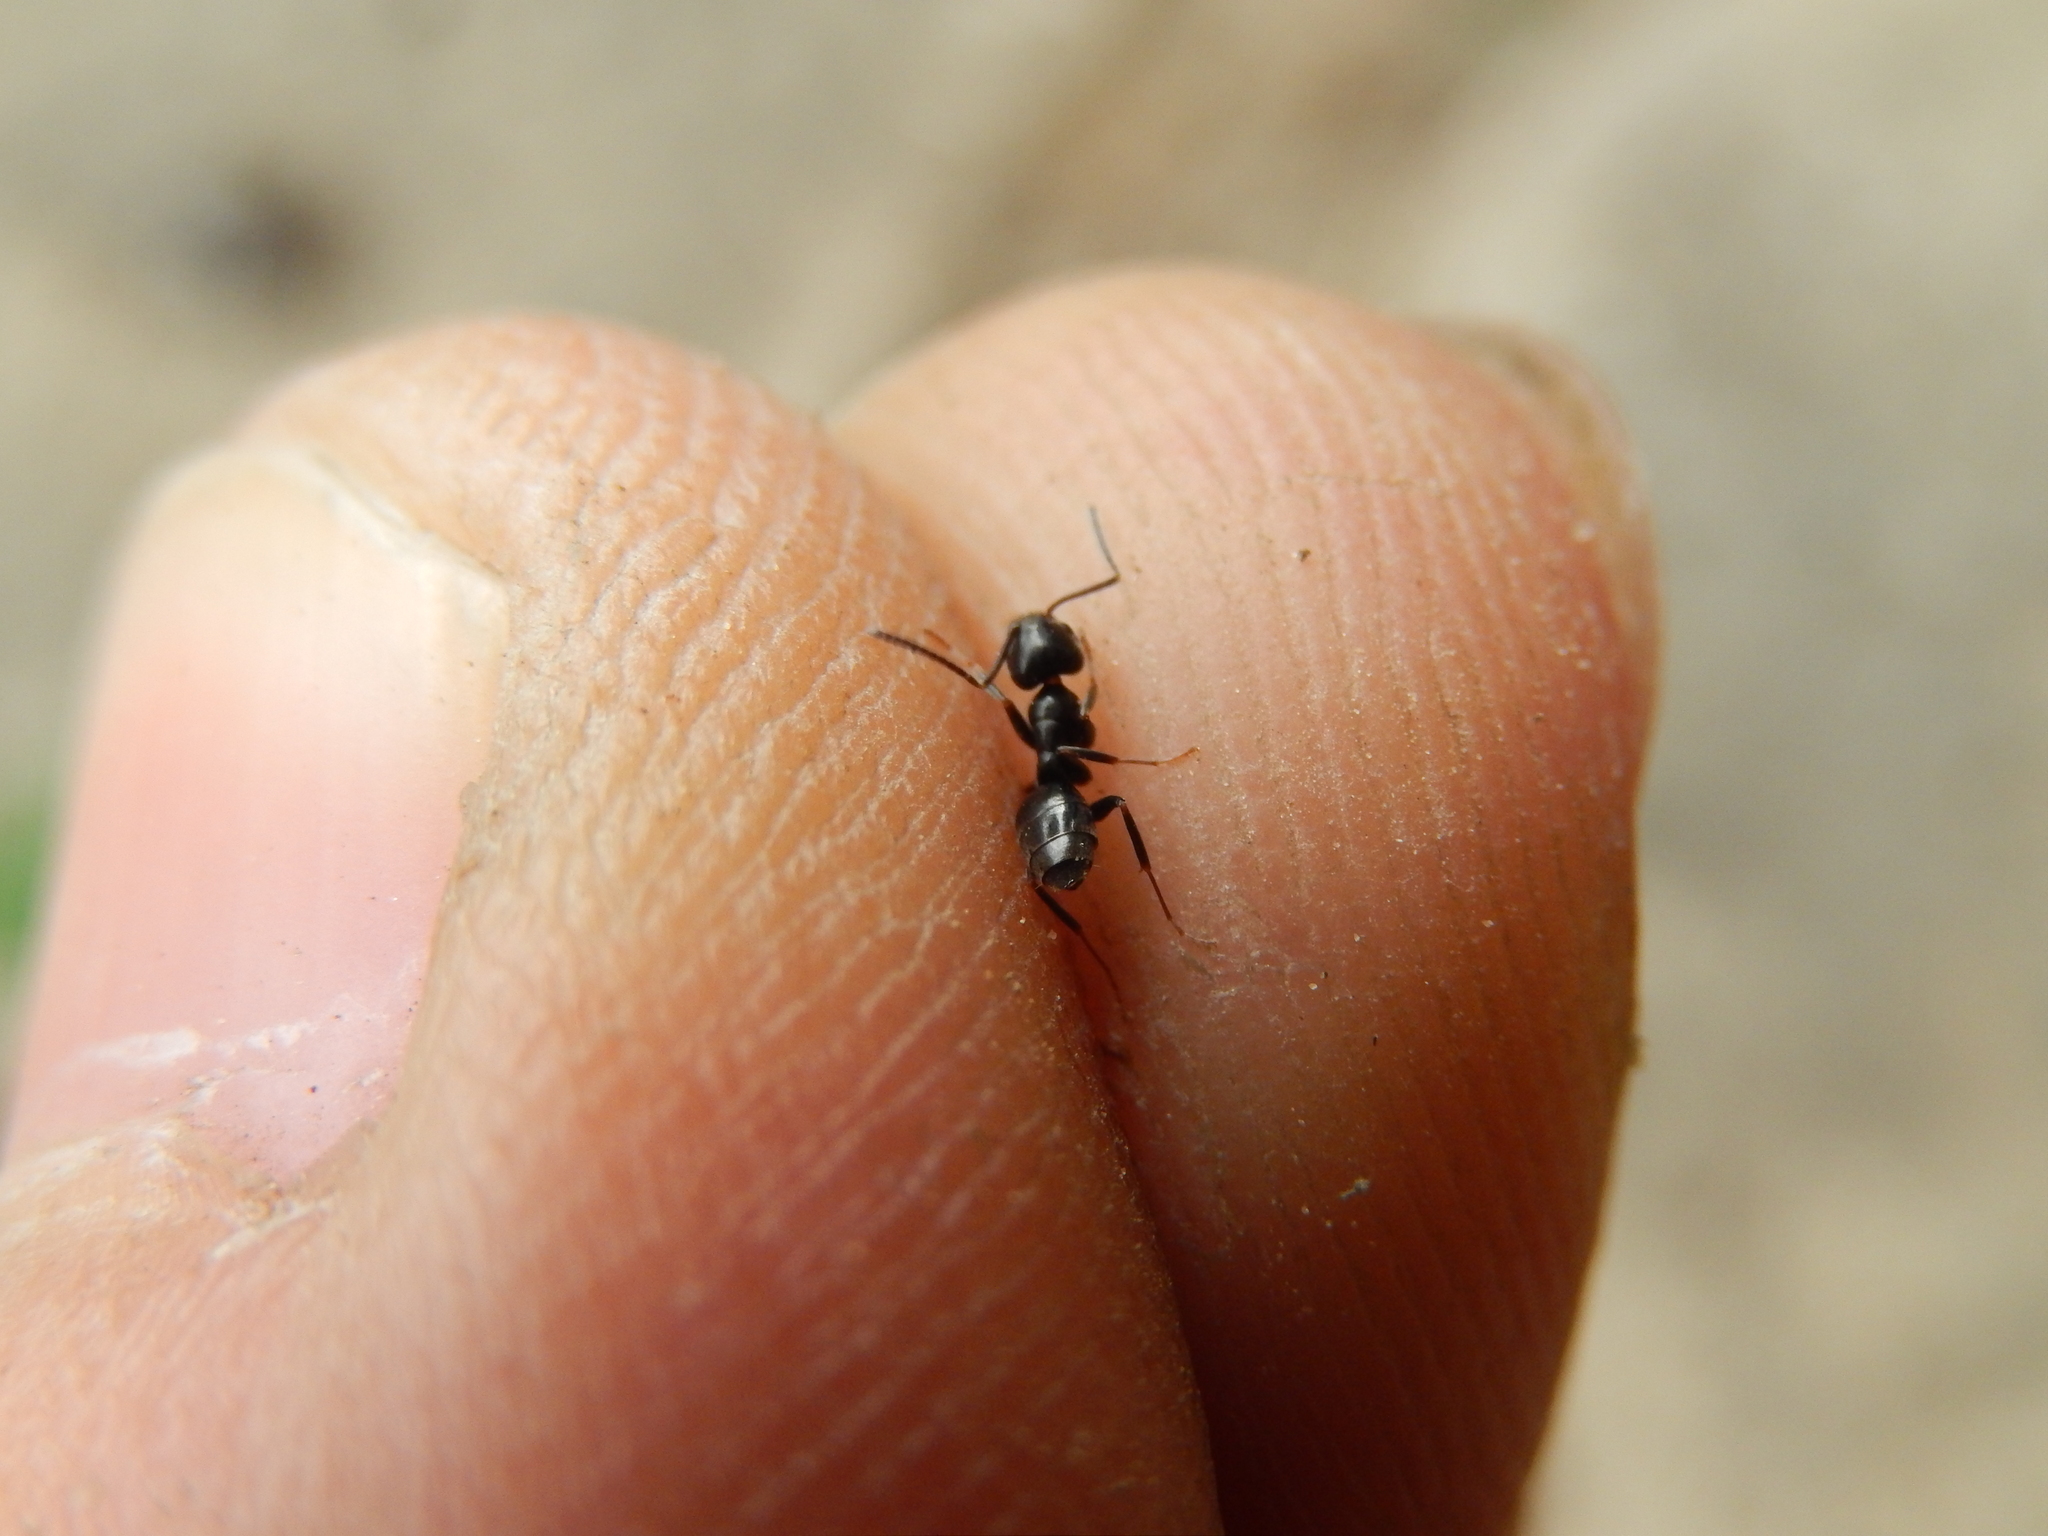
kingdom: Animalia
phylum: Arthropoda
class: Insecta
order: Hymenoptera
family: Formicidae
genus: Tapinoma
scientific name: Tapinoma erraticum
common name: Erratic ant
